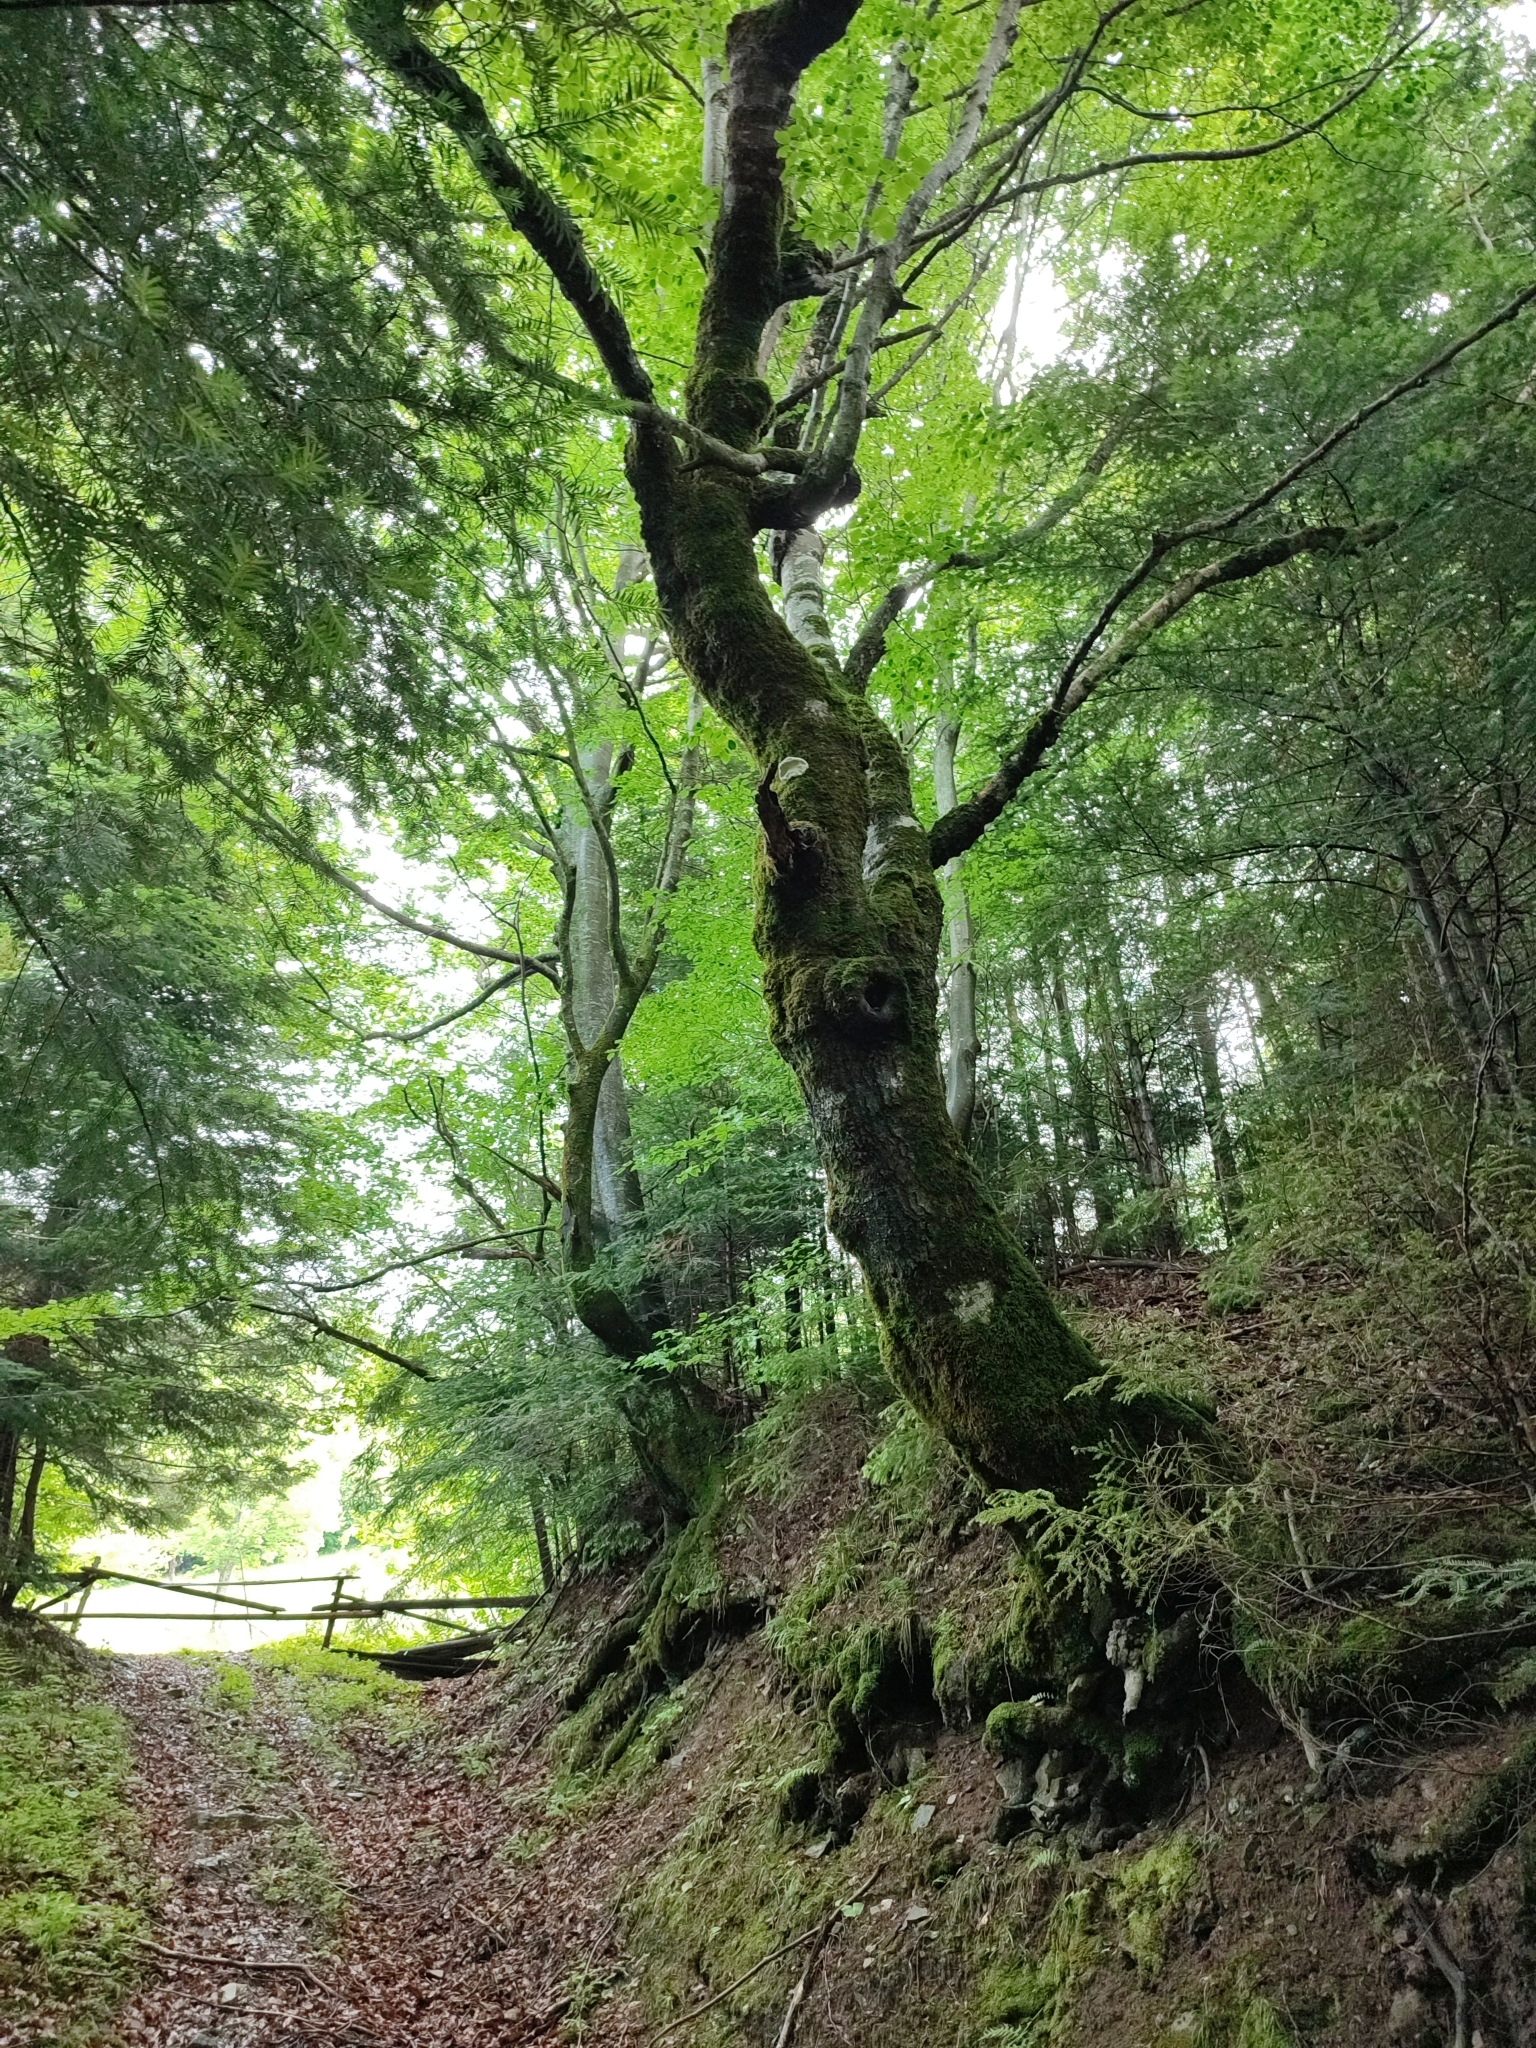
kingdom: Plantae
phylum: Tracheophyta
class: Magnoliopsida
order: Fagales
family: Fagaceae
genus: Fagus
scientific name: Fagus sylvatica
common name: Beech
